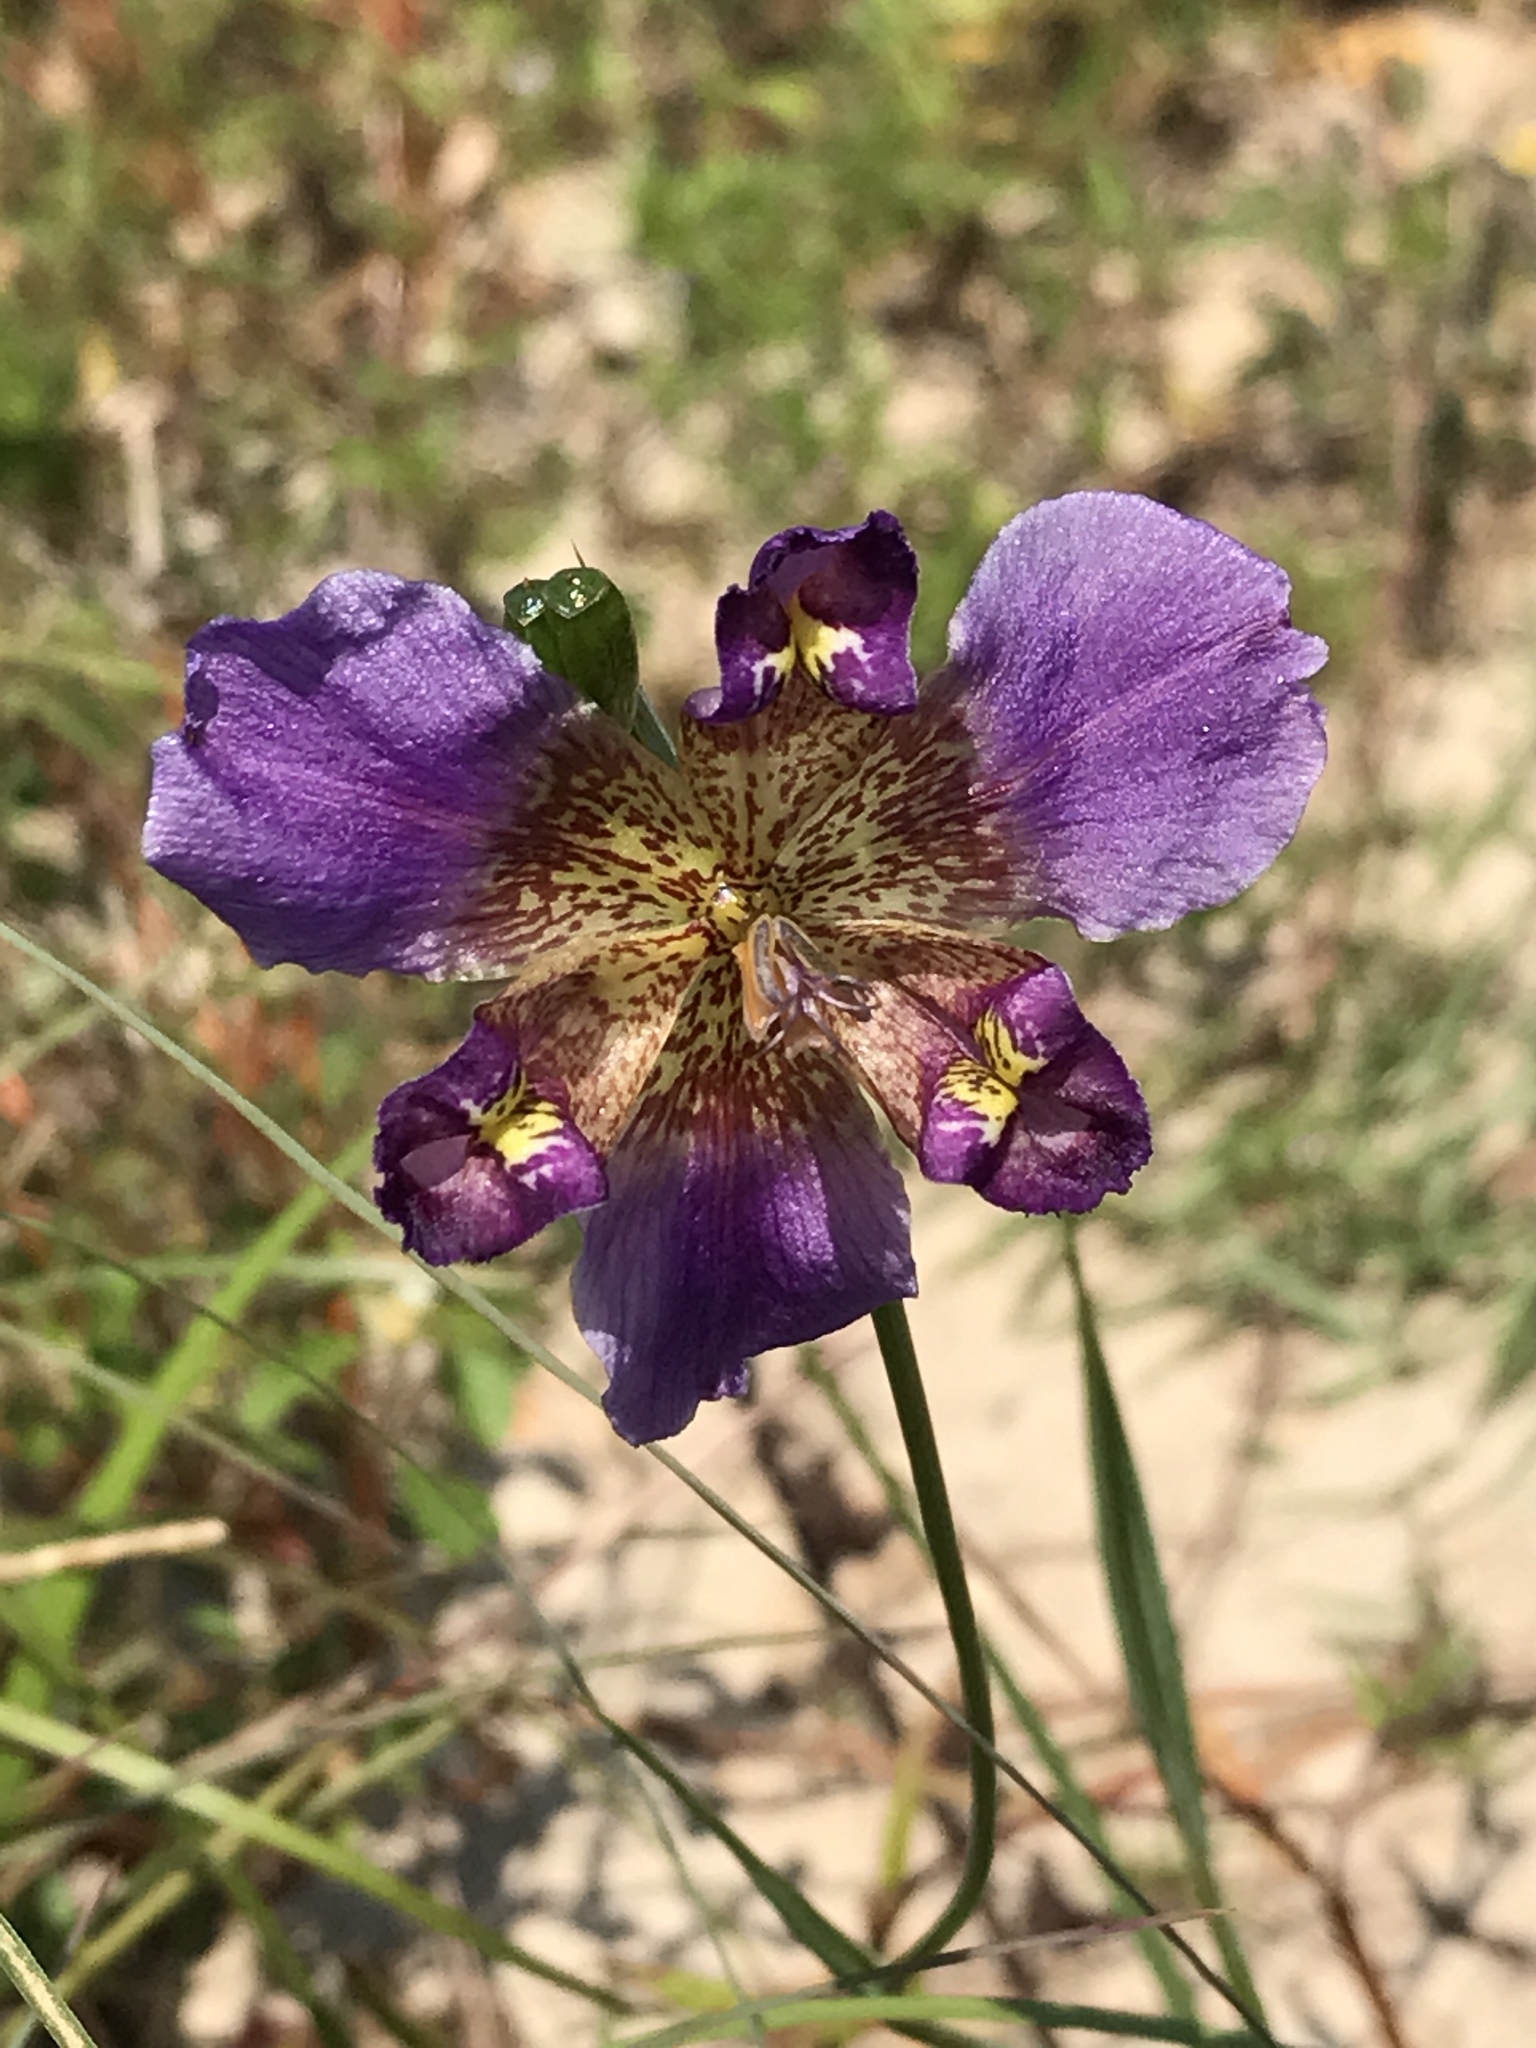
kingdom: Plantae
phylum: Tracheophyta
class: Liliopsida
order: Asparagales
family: Iridaceae
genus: Alophia
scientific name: Alophia drummondii
